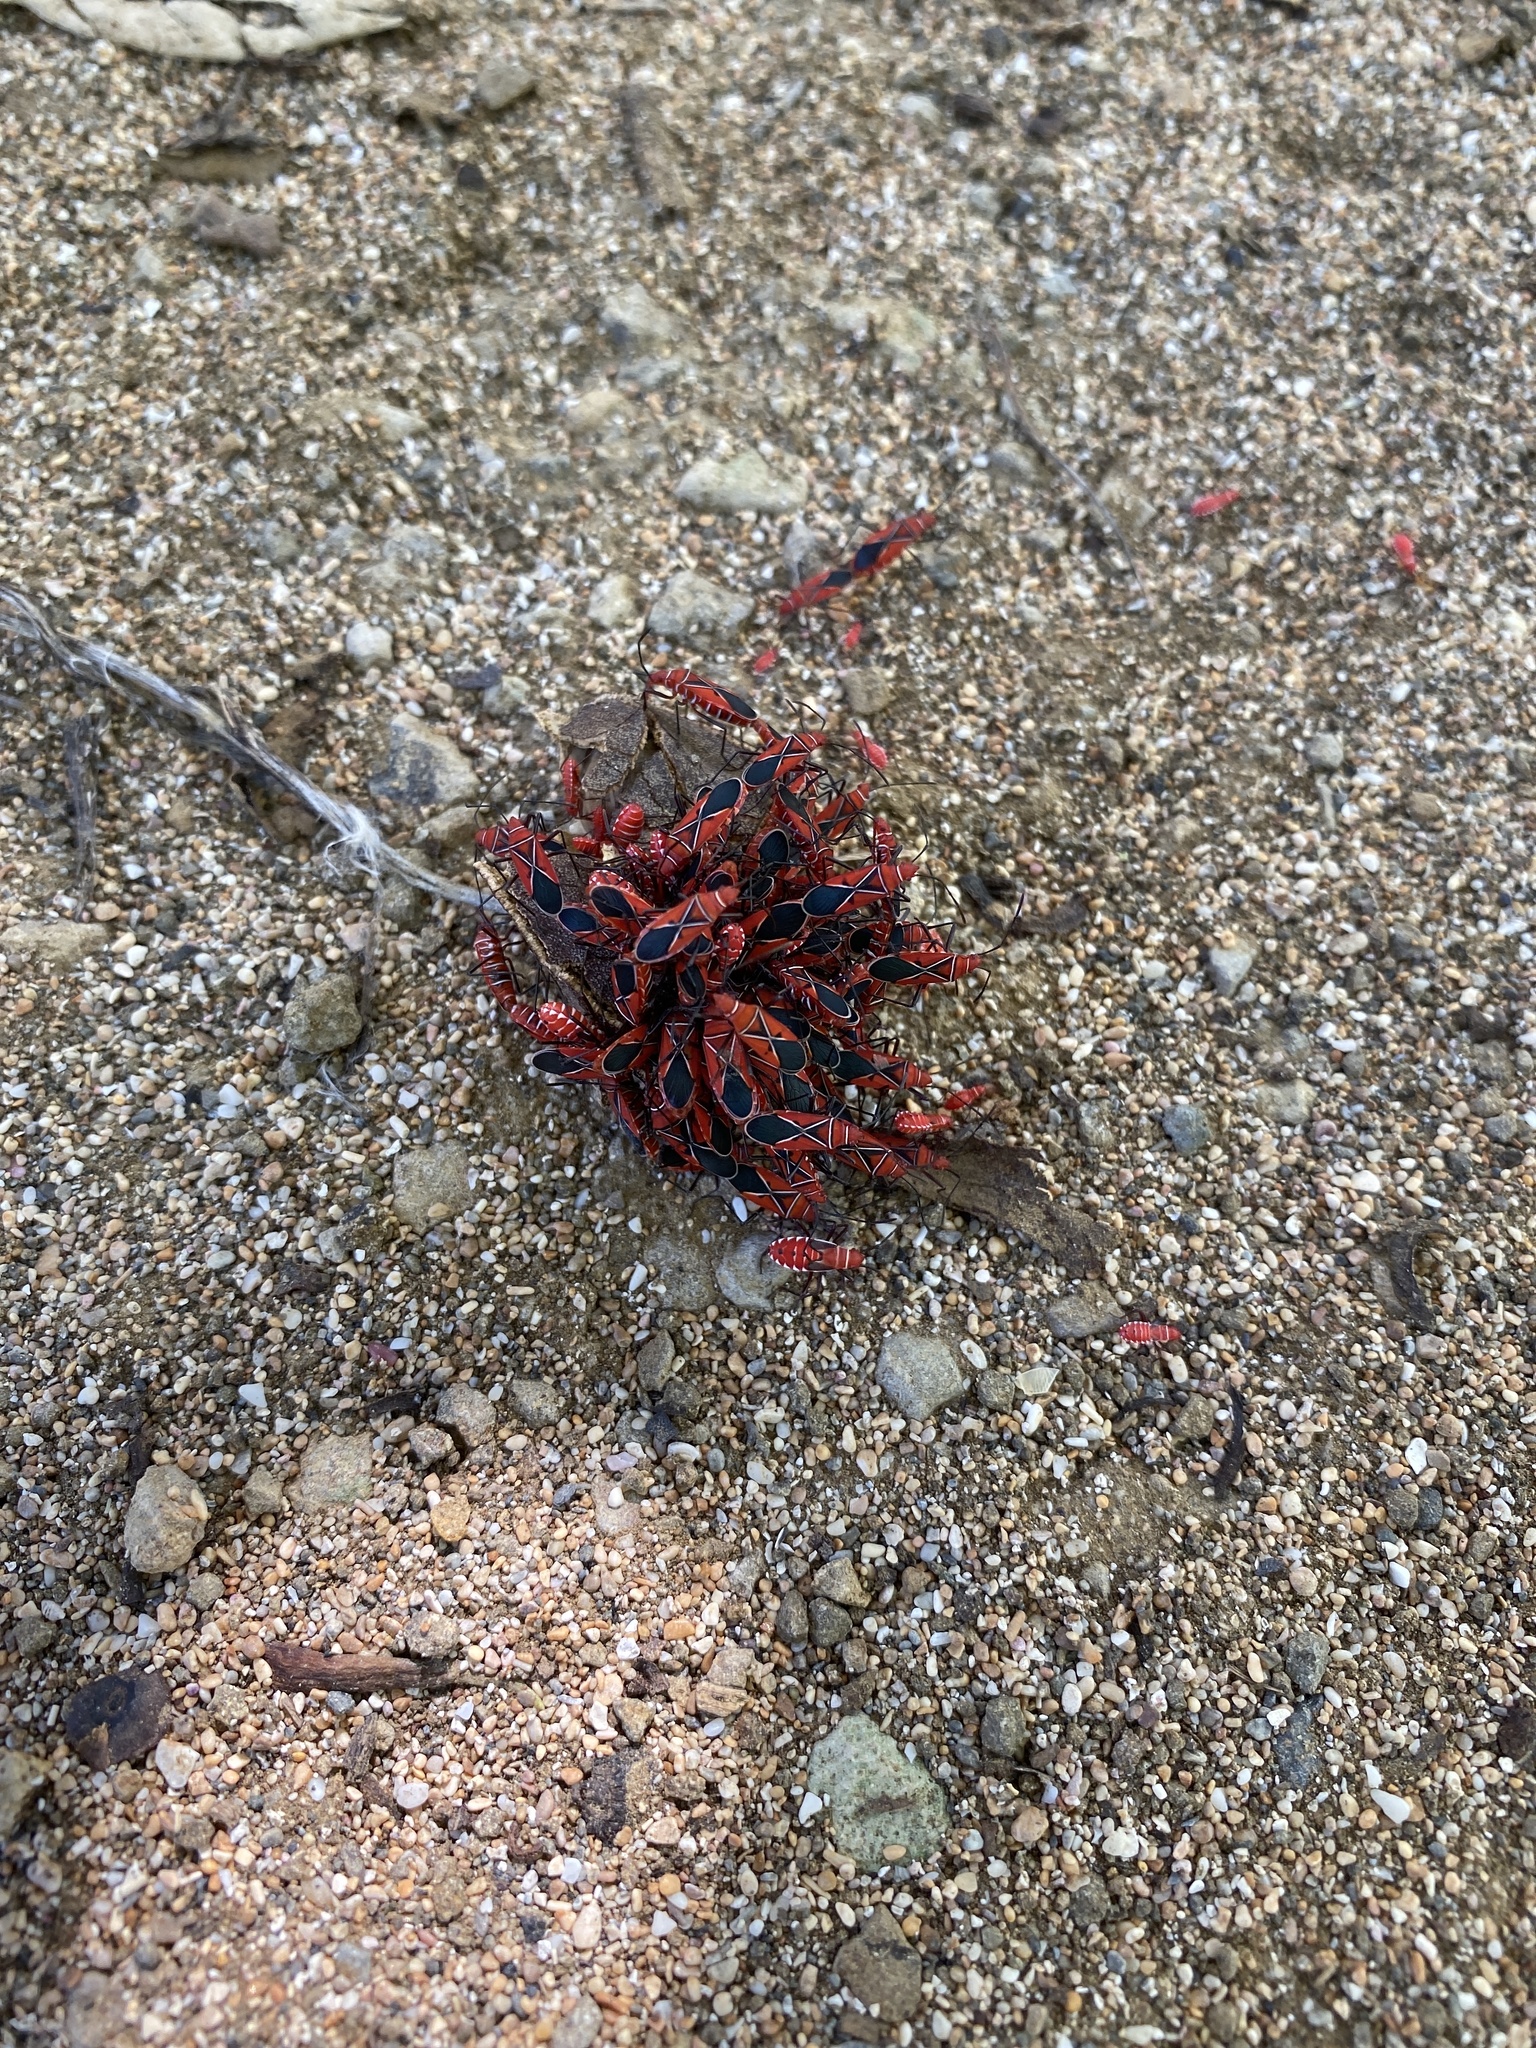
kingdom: Animalia
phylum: Arthropoda
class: Insecta
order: Hemiptera
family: Pyrrhocoridae
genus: Dysdercus
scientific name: Dysdercus andreae
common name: St. andrew's cotton stainer
